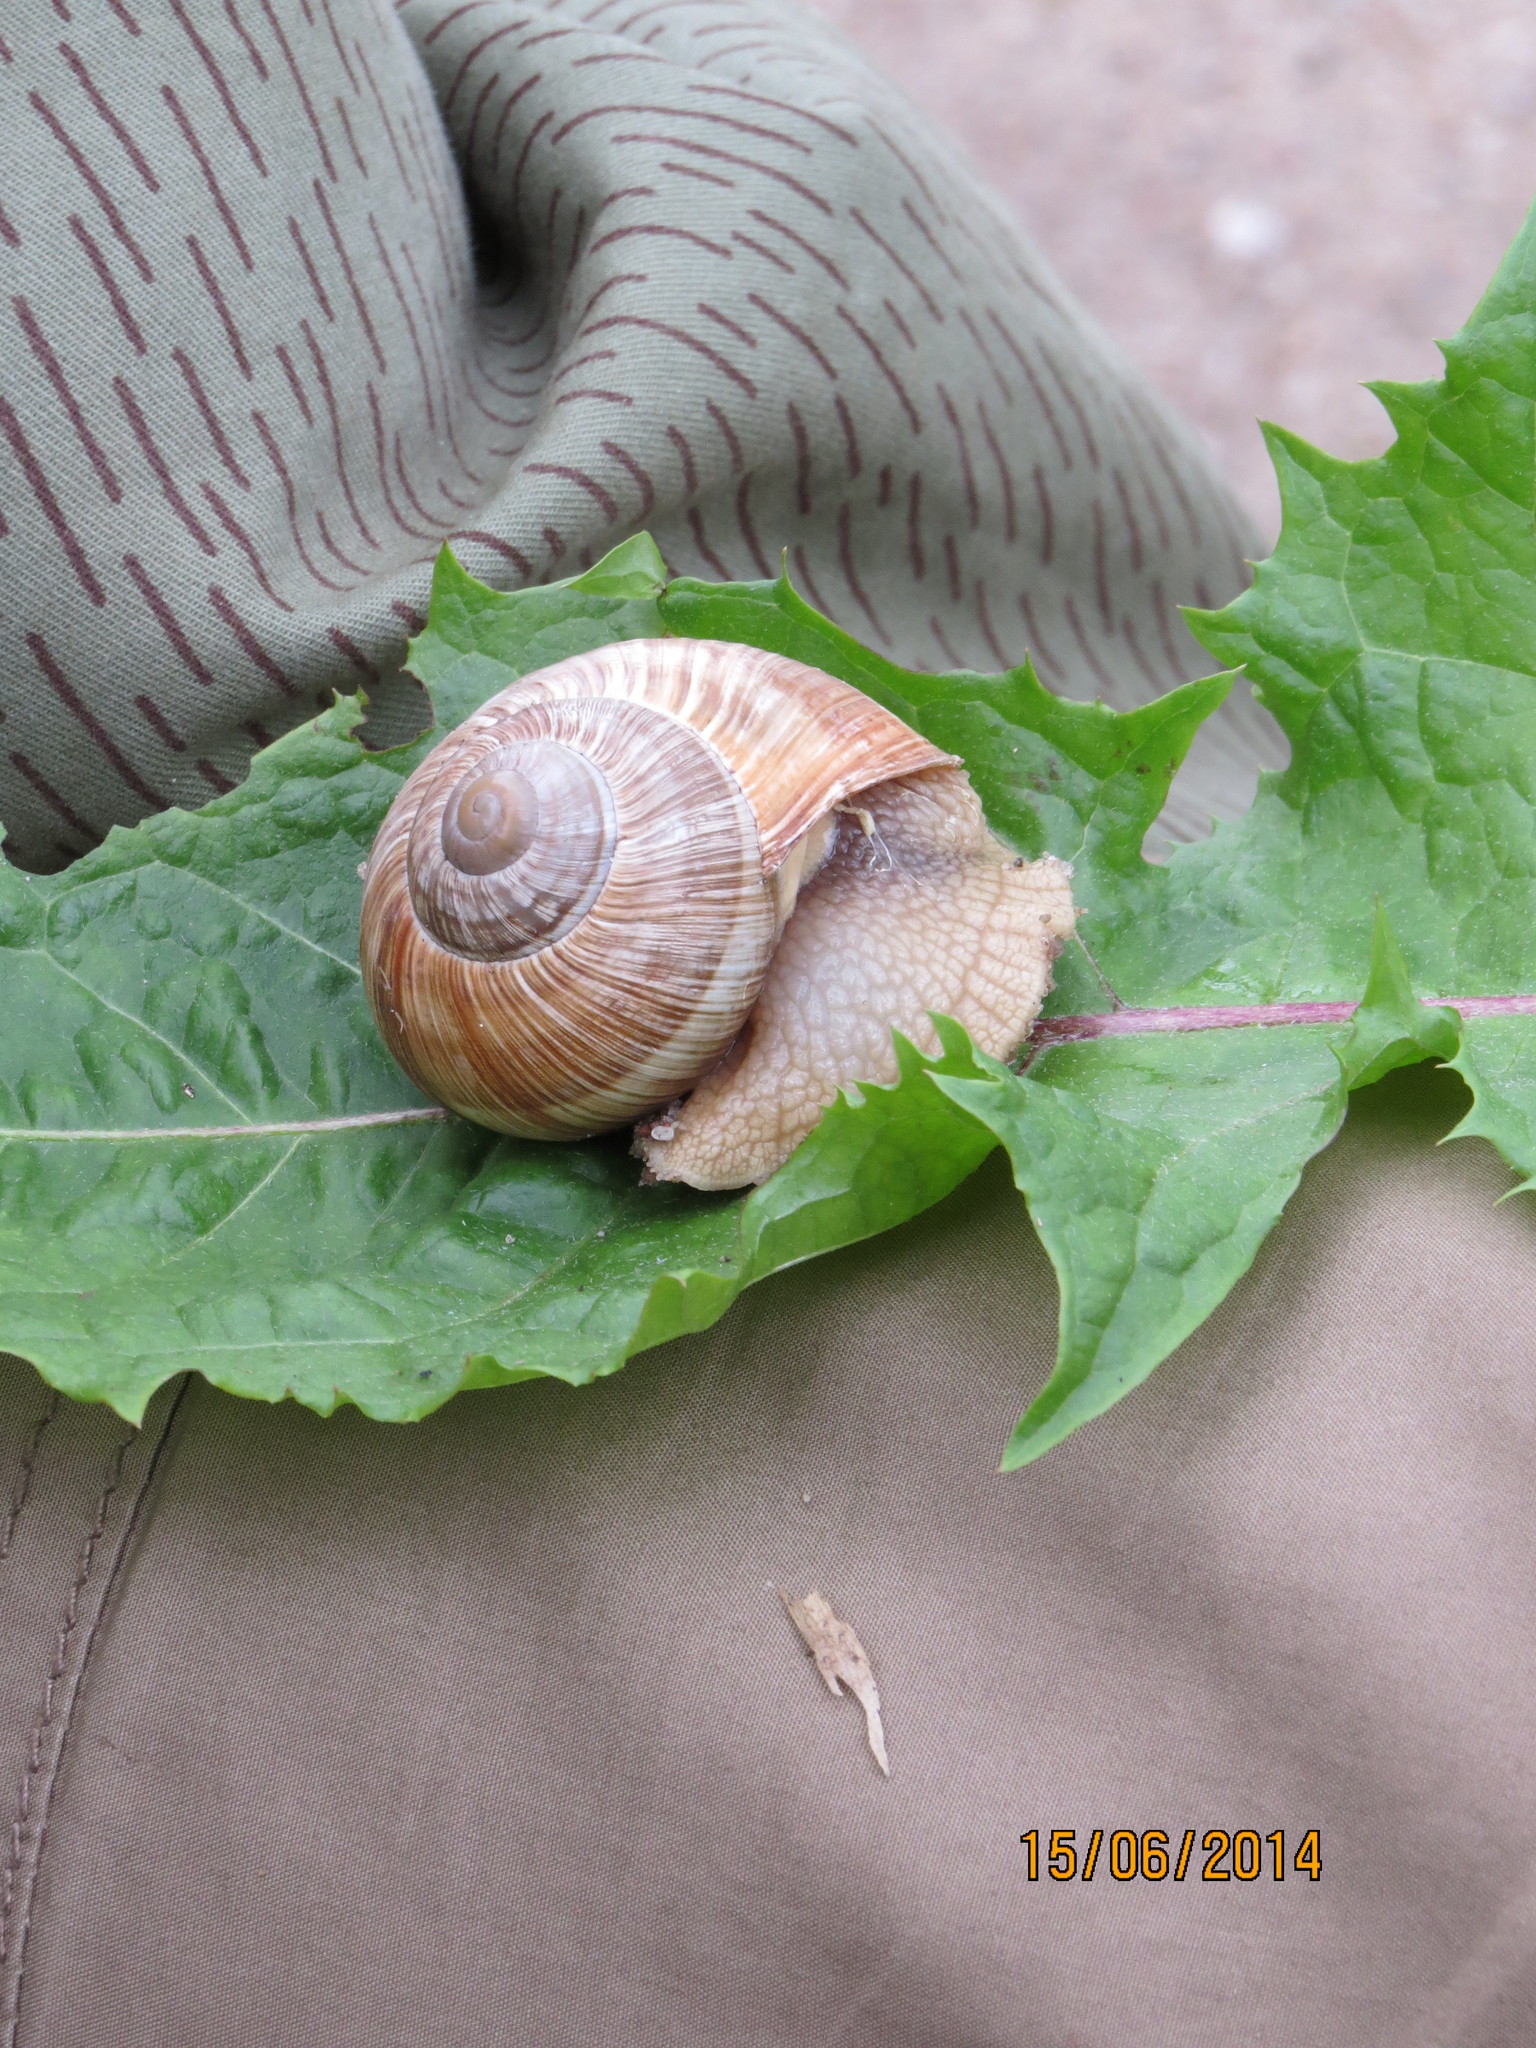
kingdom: Animalia
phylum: Mollusca
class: Gastropoda
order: Stylommatophora
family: Helicidae
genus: Helix
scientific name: Helix pomatia
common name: Roman snail
